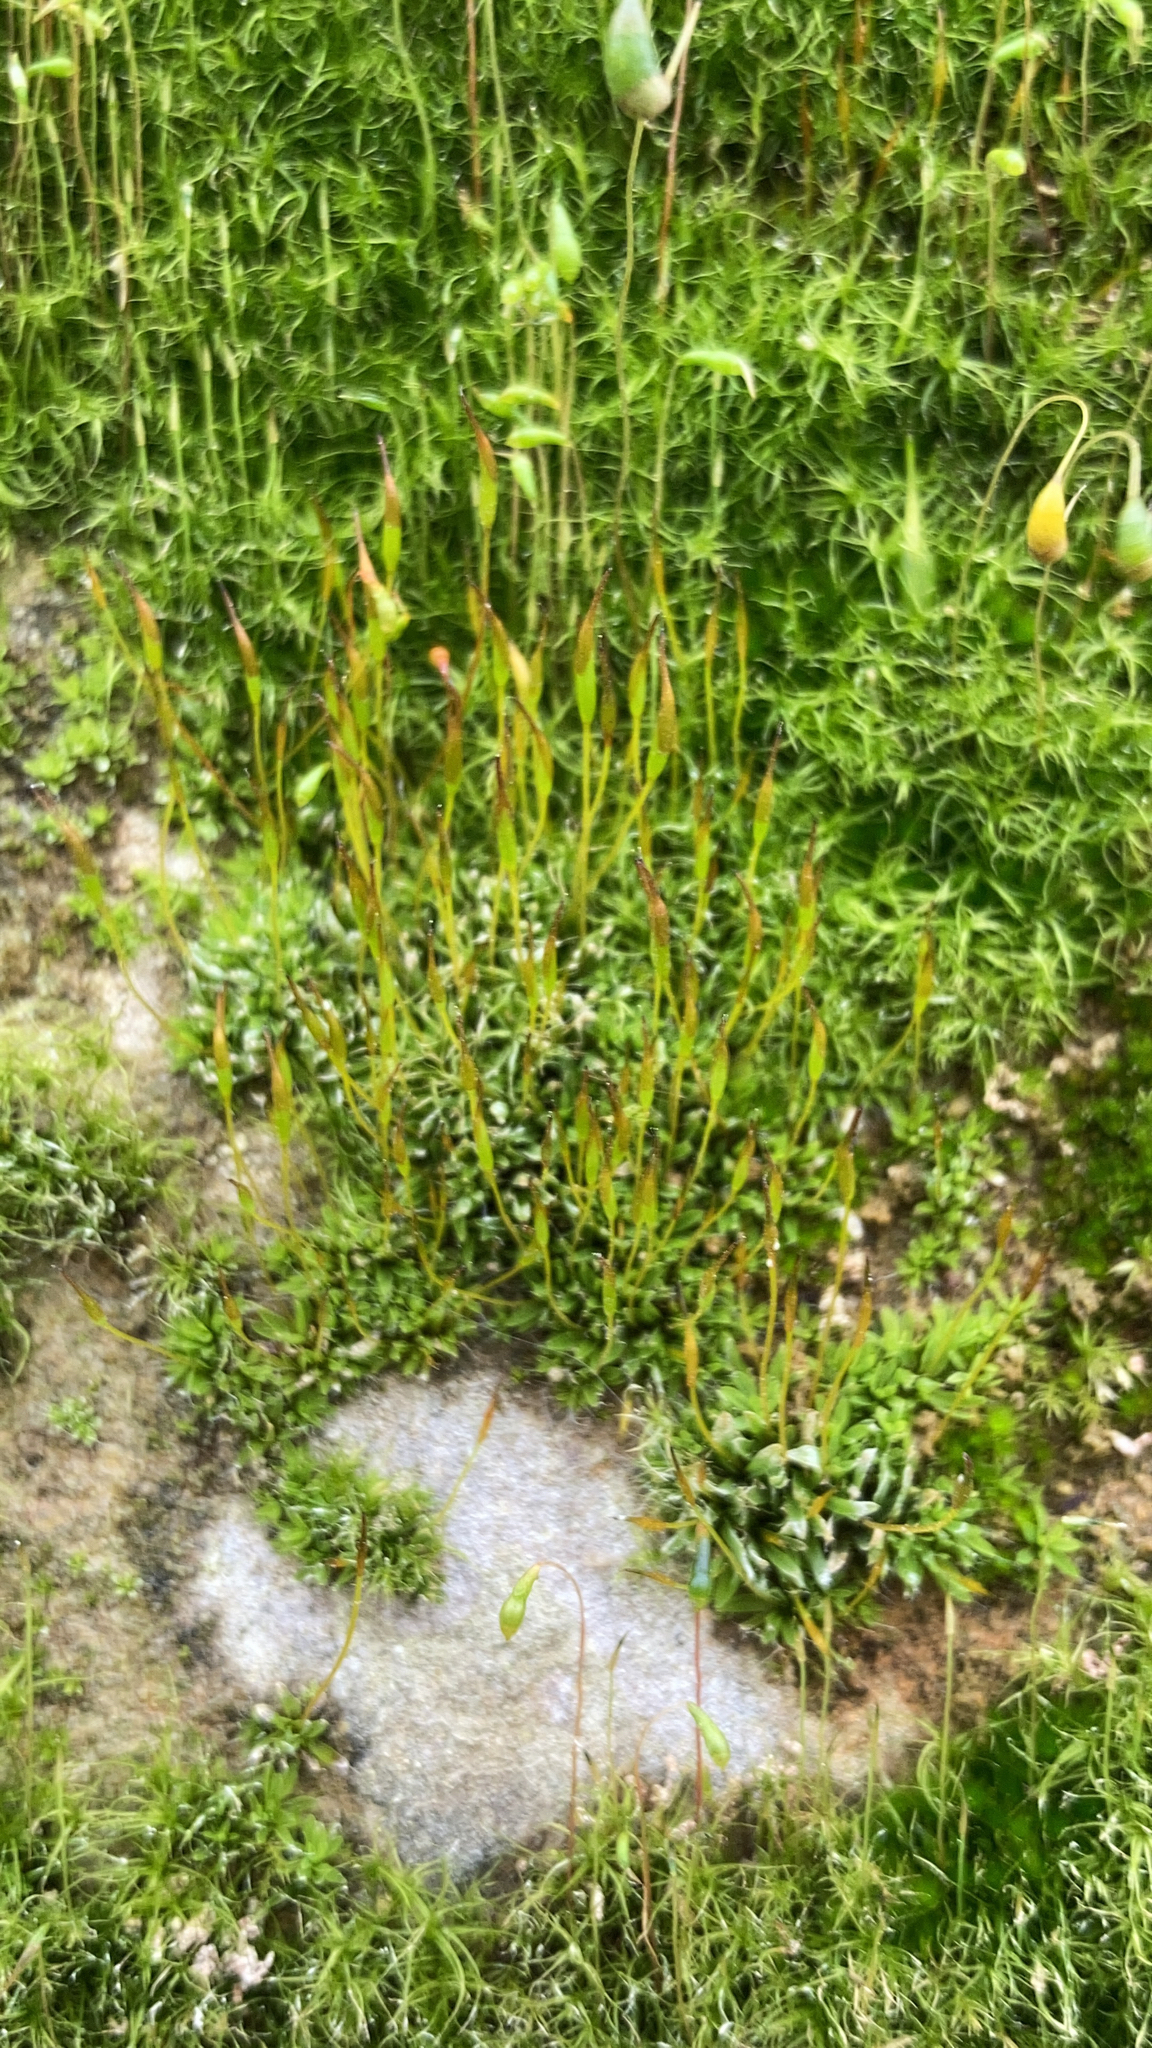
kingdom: Plantae
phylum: Bryophyta
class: Bryopsida
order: Pottiales
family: Pottiaceae
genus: Tortula
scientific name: Tortula muralis
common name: Wall screw-moss
